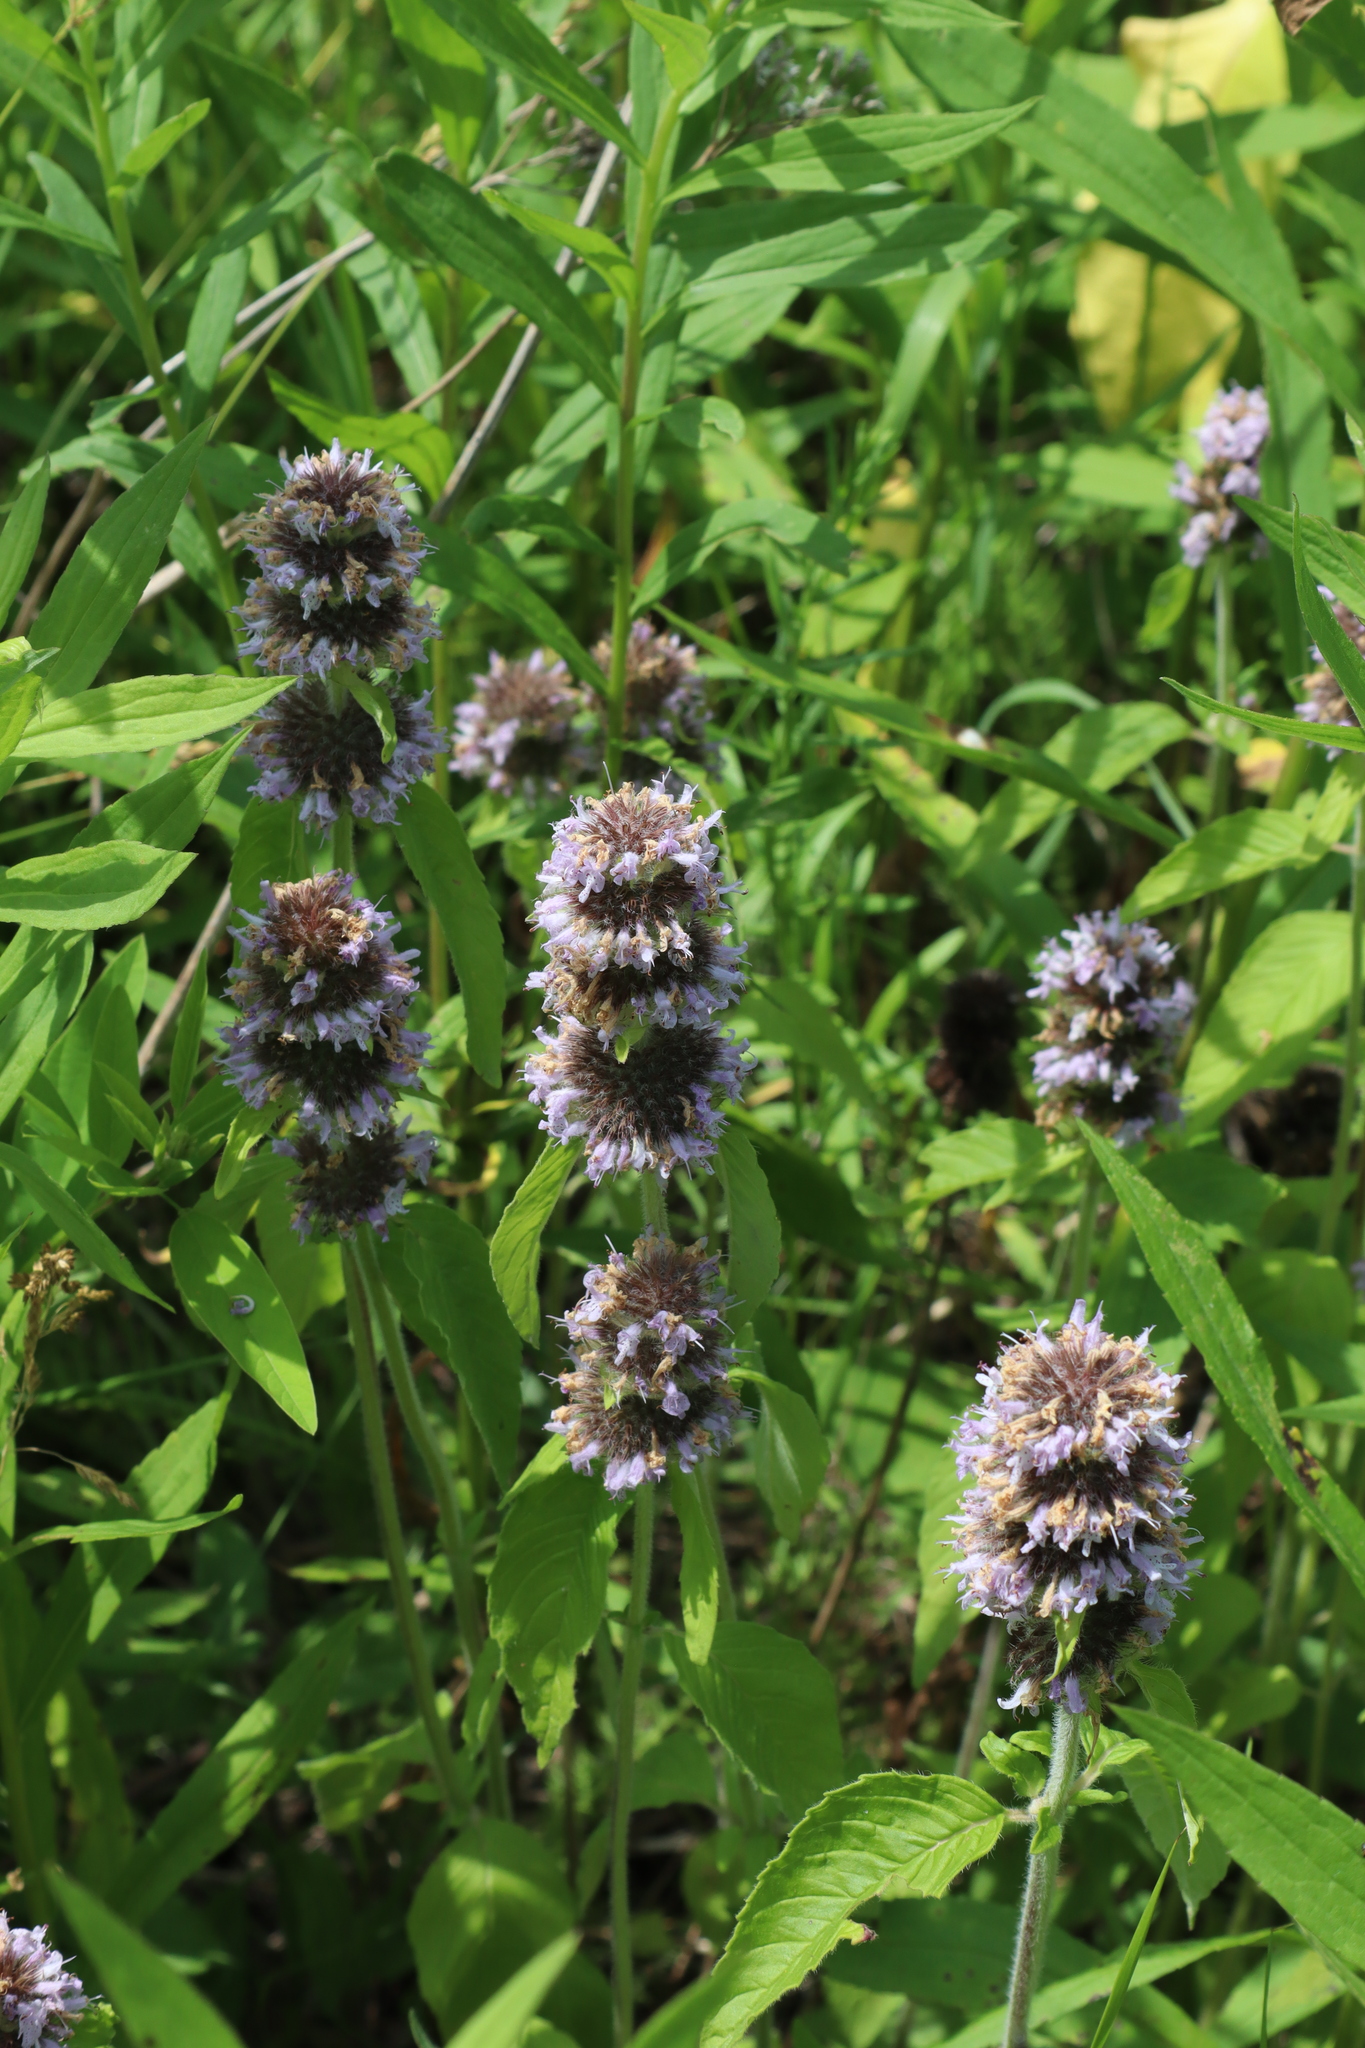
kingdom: Plantae
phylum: Tracheophyta
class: Magnoliopsida
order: Lamiales
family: Lamiaceae
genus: Blephilia
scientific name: Blephilia ciliata
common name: Downy blephilia
